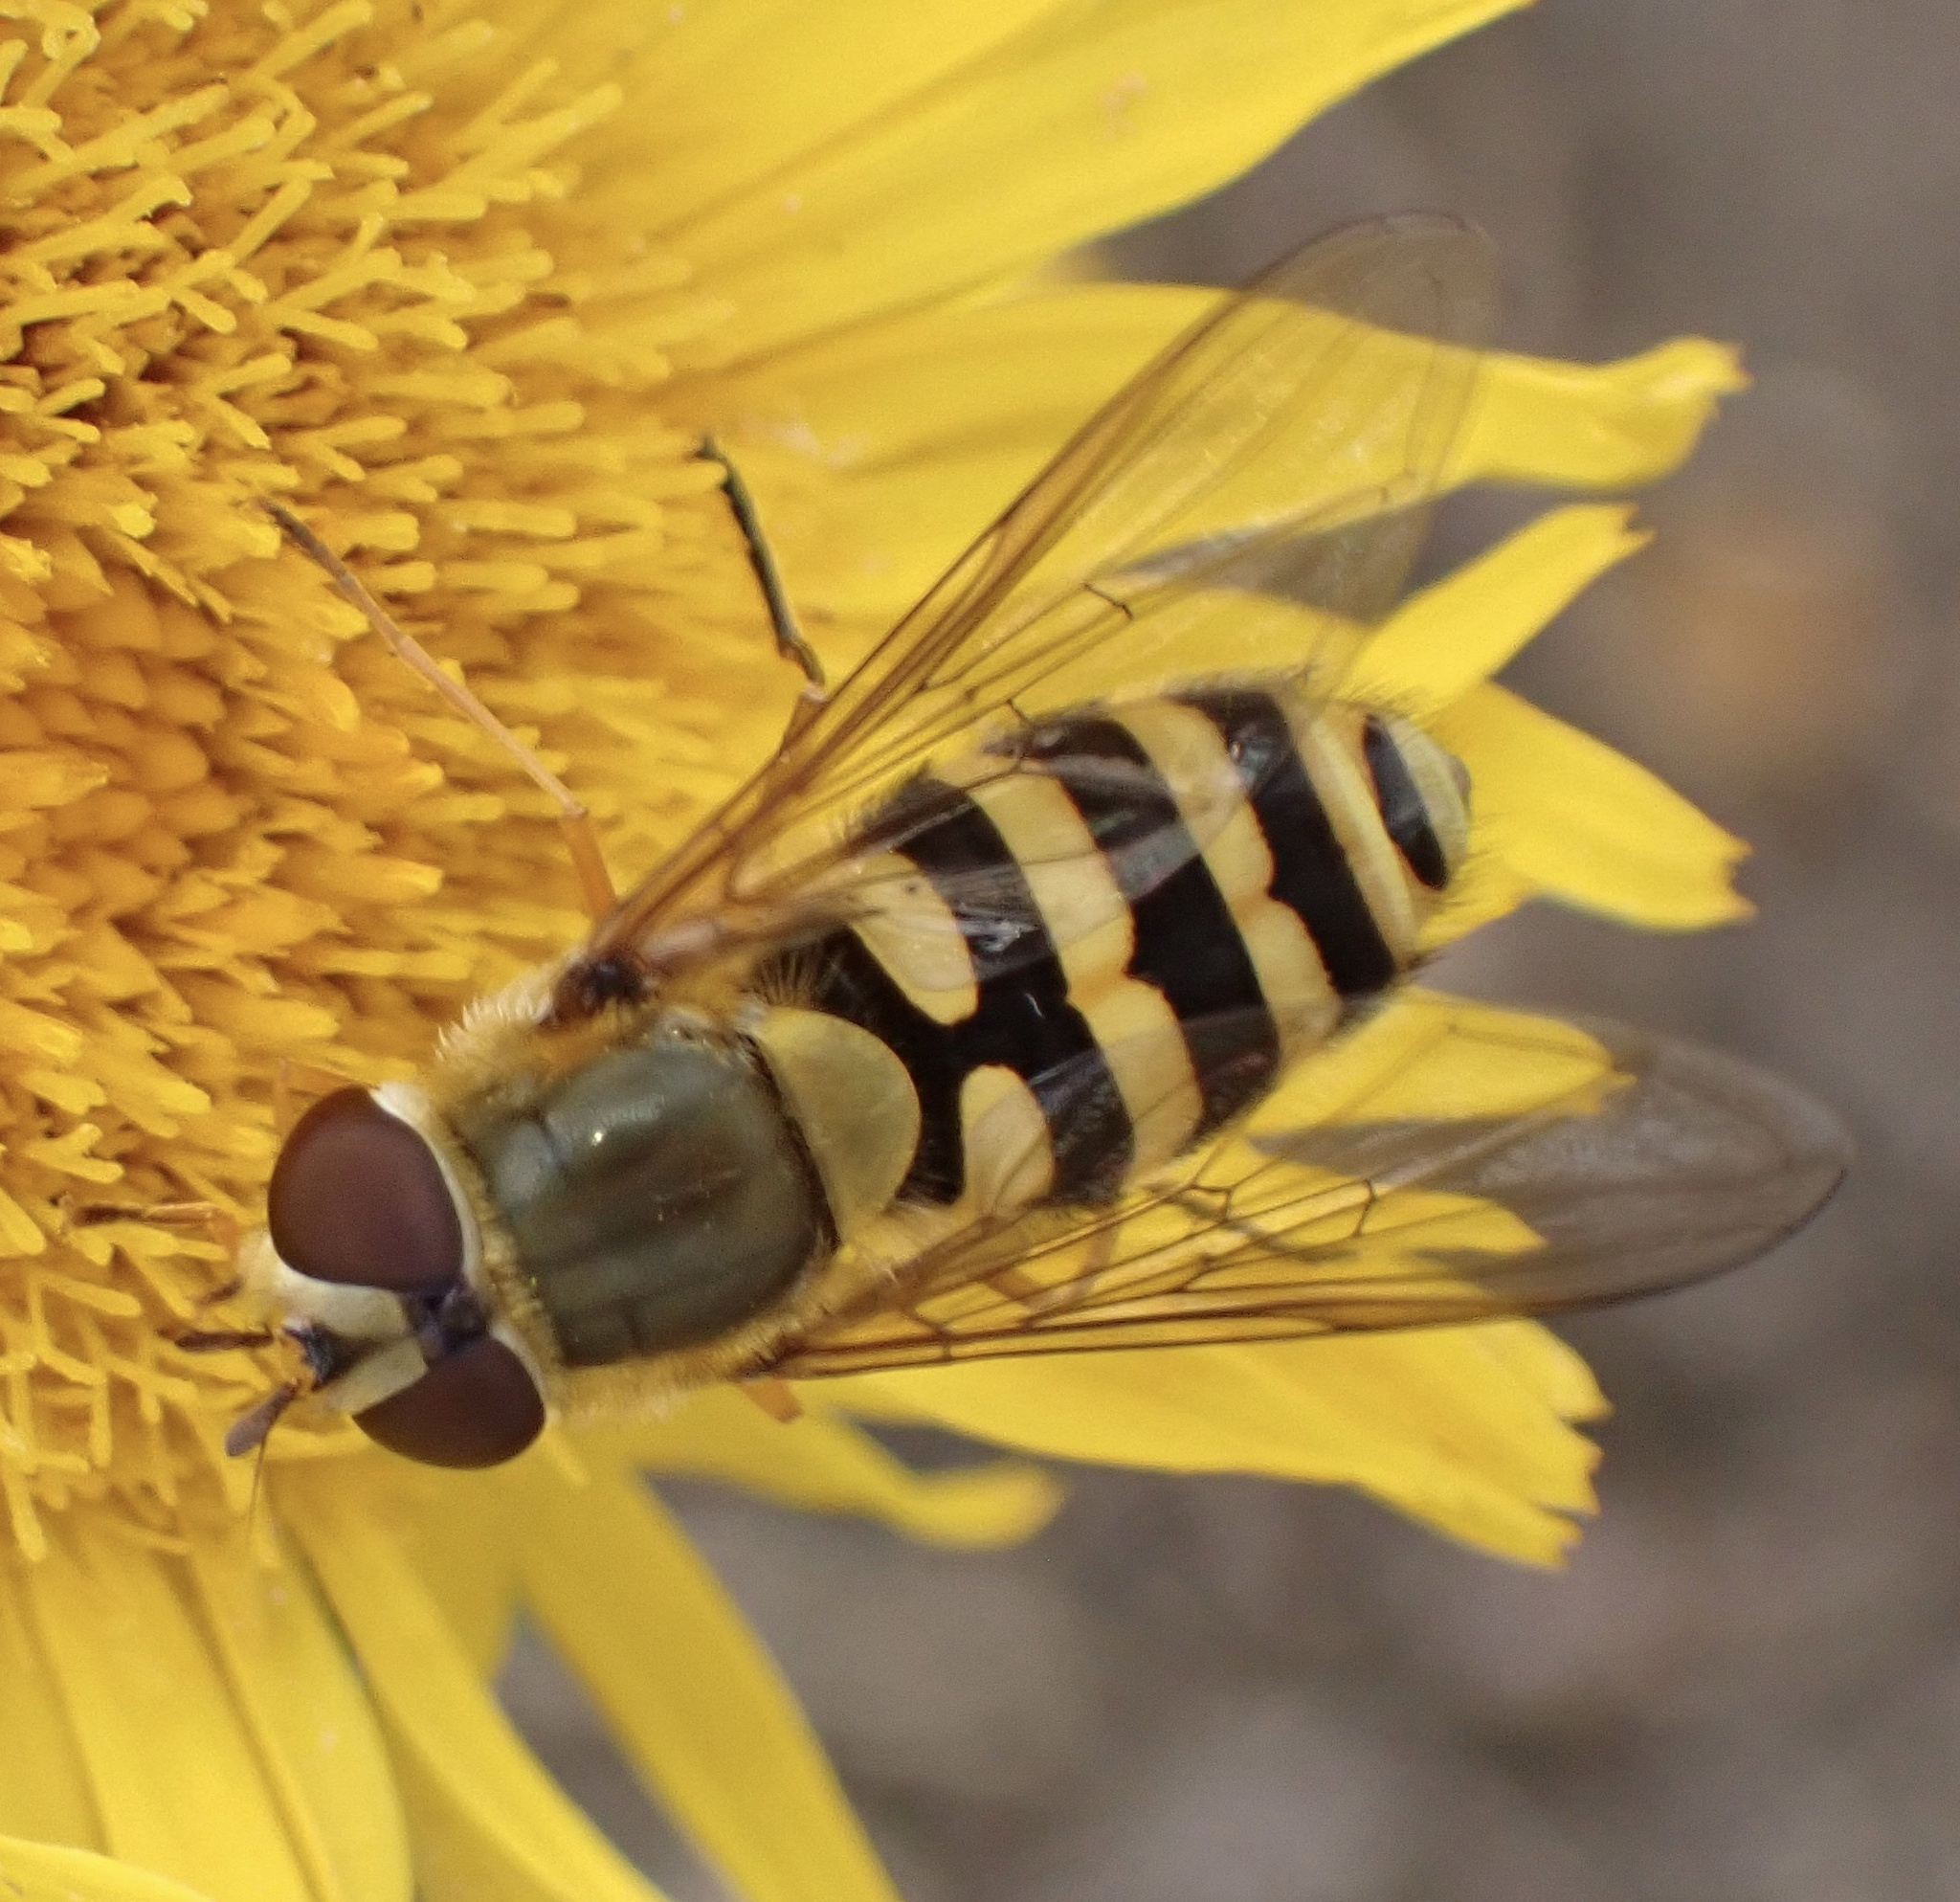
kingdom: Animalia
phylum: Arthropoda
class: Insecta
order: Diptera
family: Syrphidae
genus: Syrphus
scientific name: Syrphus
